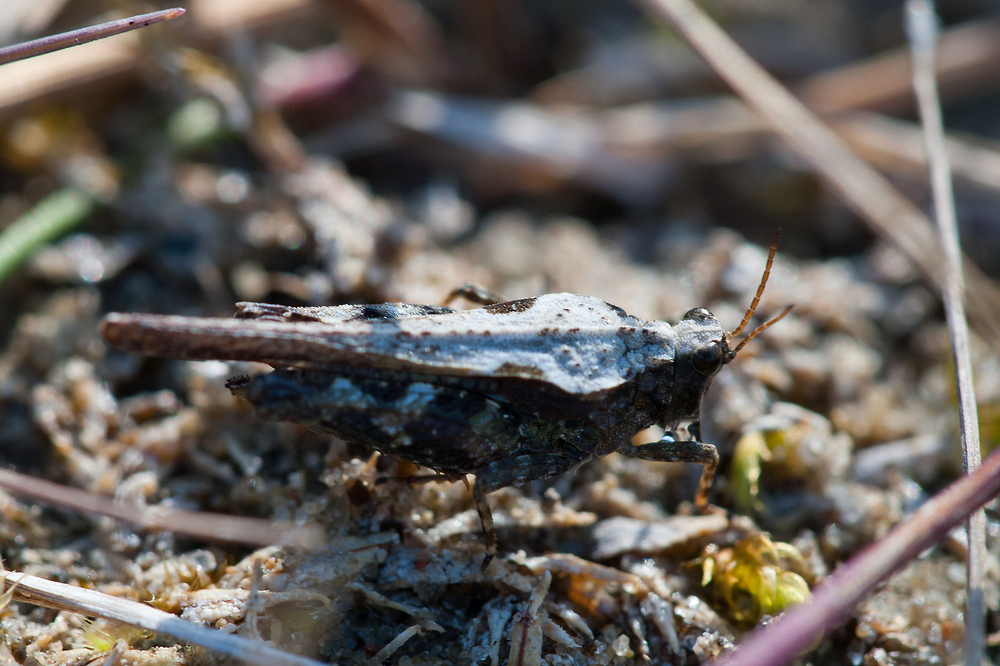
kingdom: Animalia
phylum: Arthropoda
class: Insecta
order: Orthoptera
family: Tetrigidae
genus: Tetrix
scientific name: Tetrix ceperoi
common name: Cepero's ground-hopper
